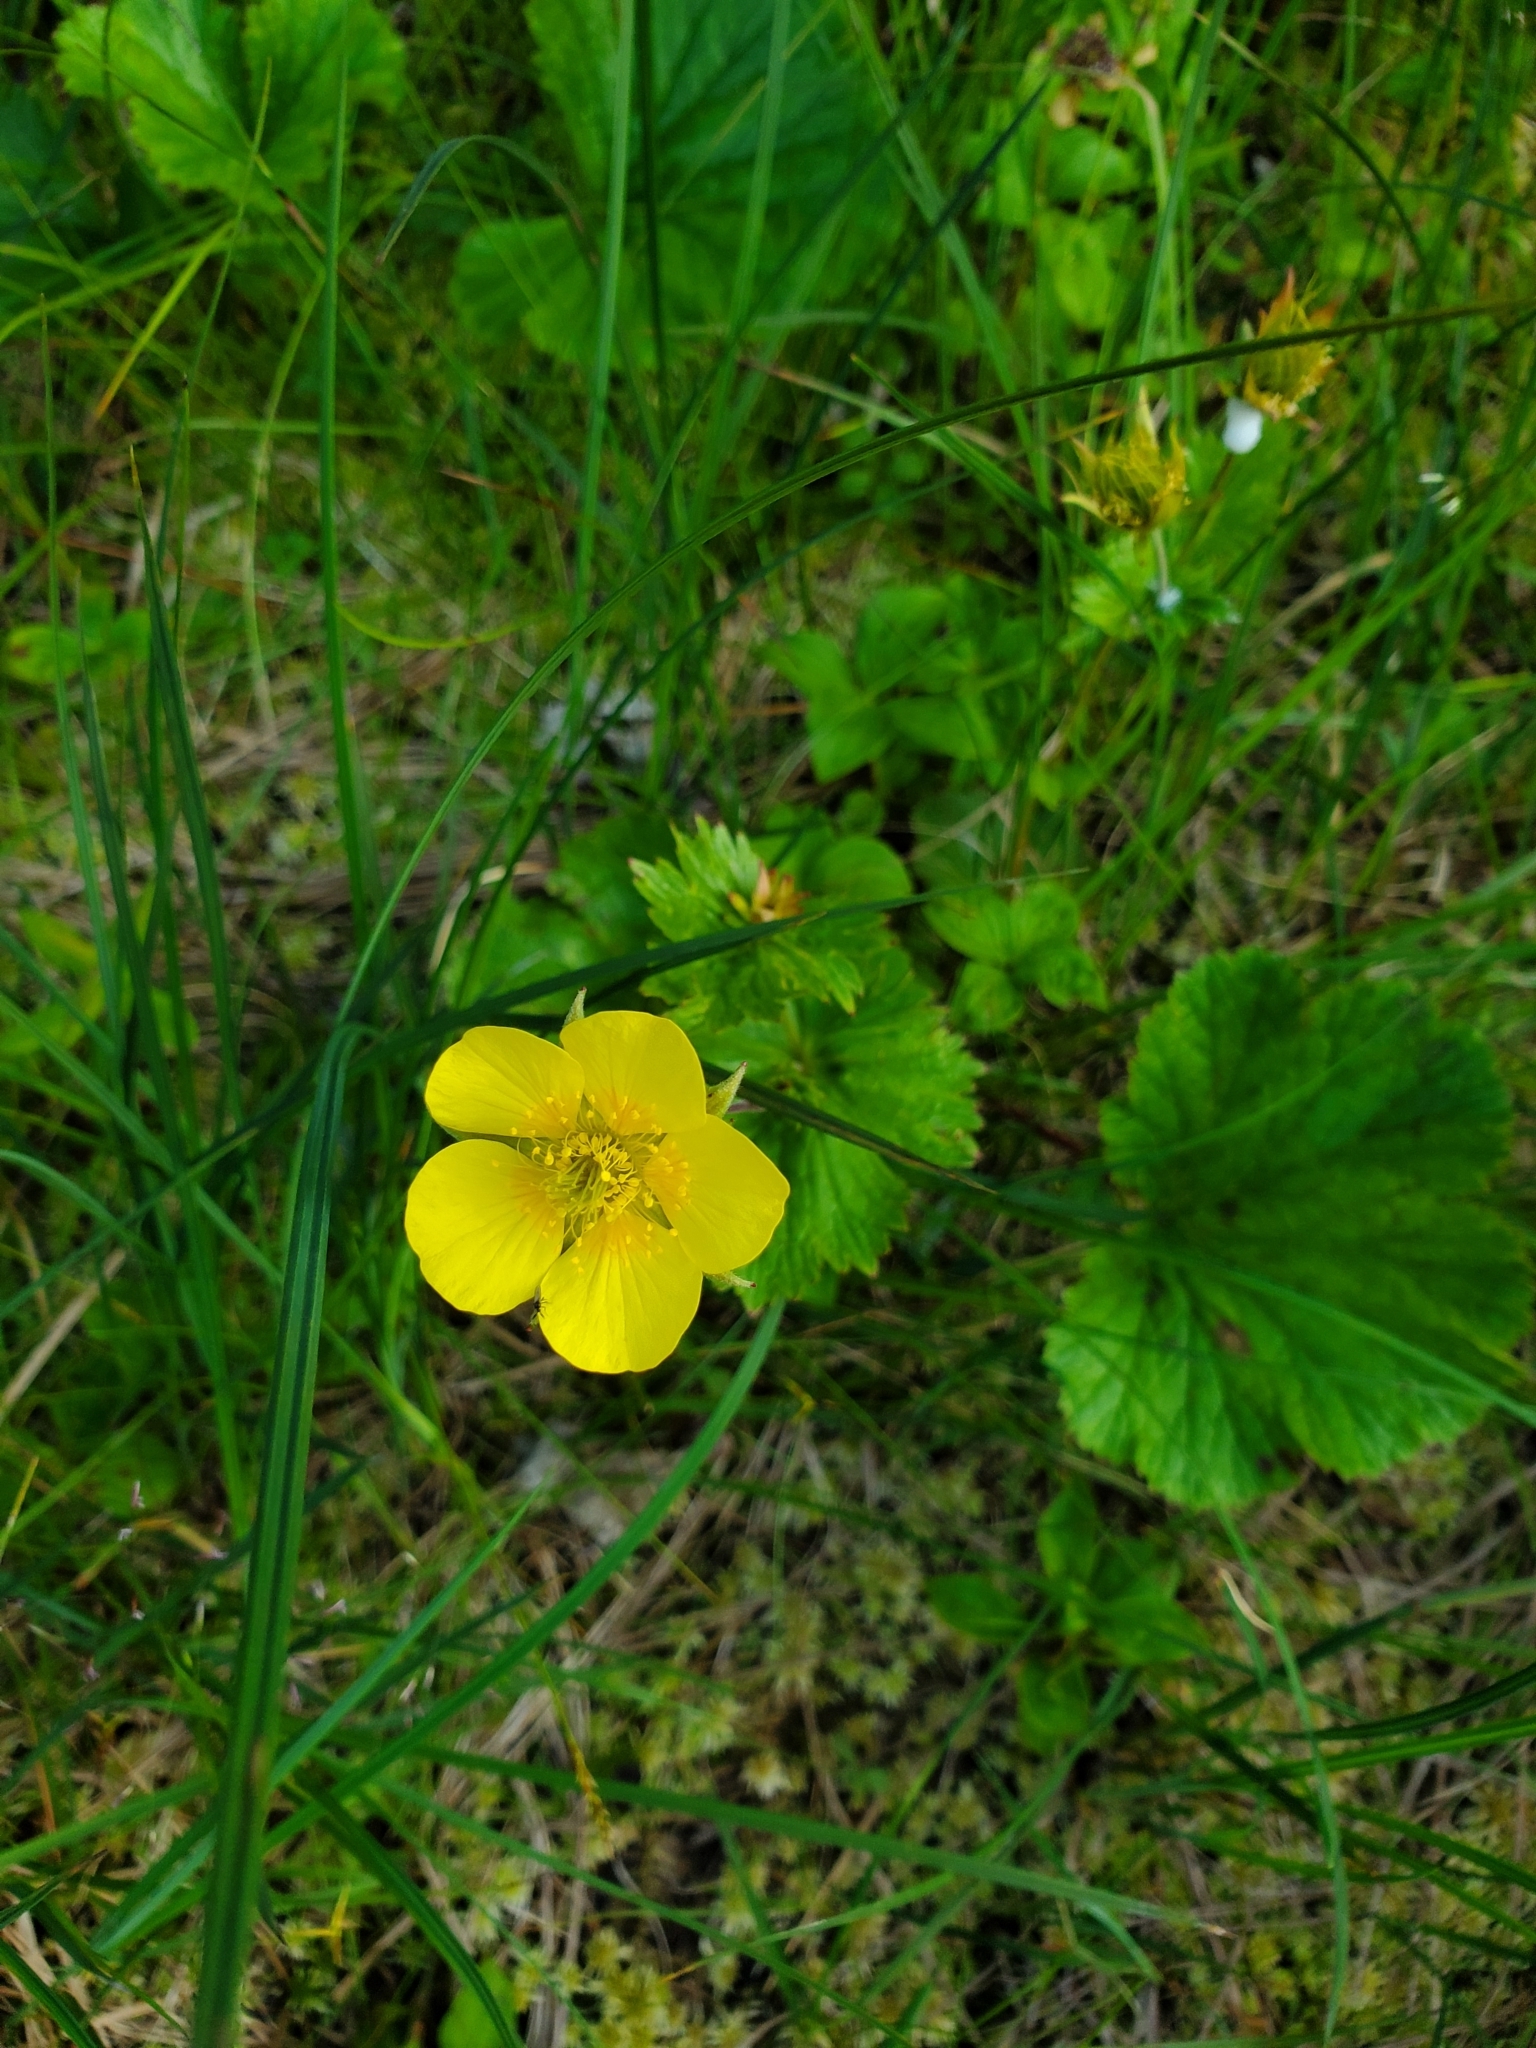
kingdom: Plantae
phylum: Tracheophyta
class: Magnoliopsida
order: Rosales
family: Rosaceae
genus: Geum
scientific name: Geum calthifolium
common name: Caltha-leaved avens
